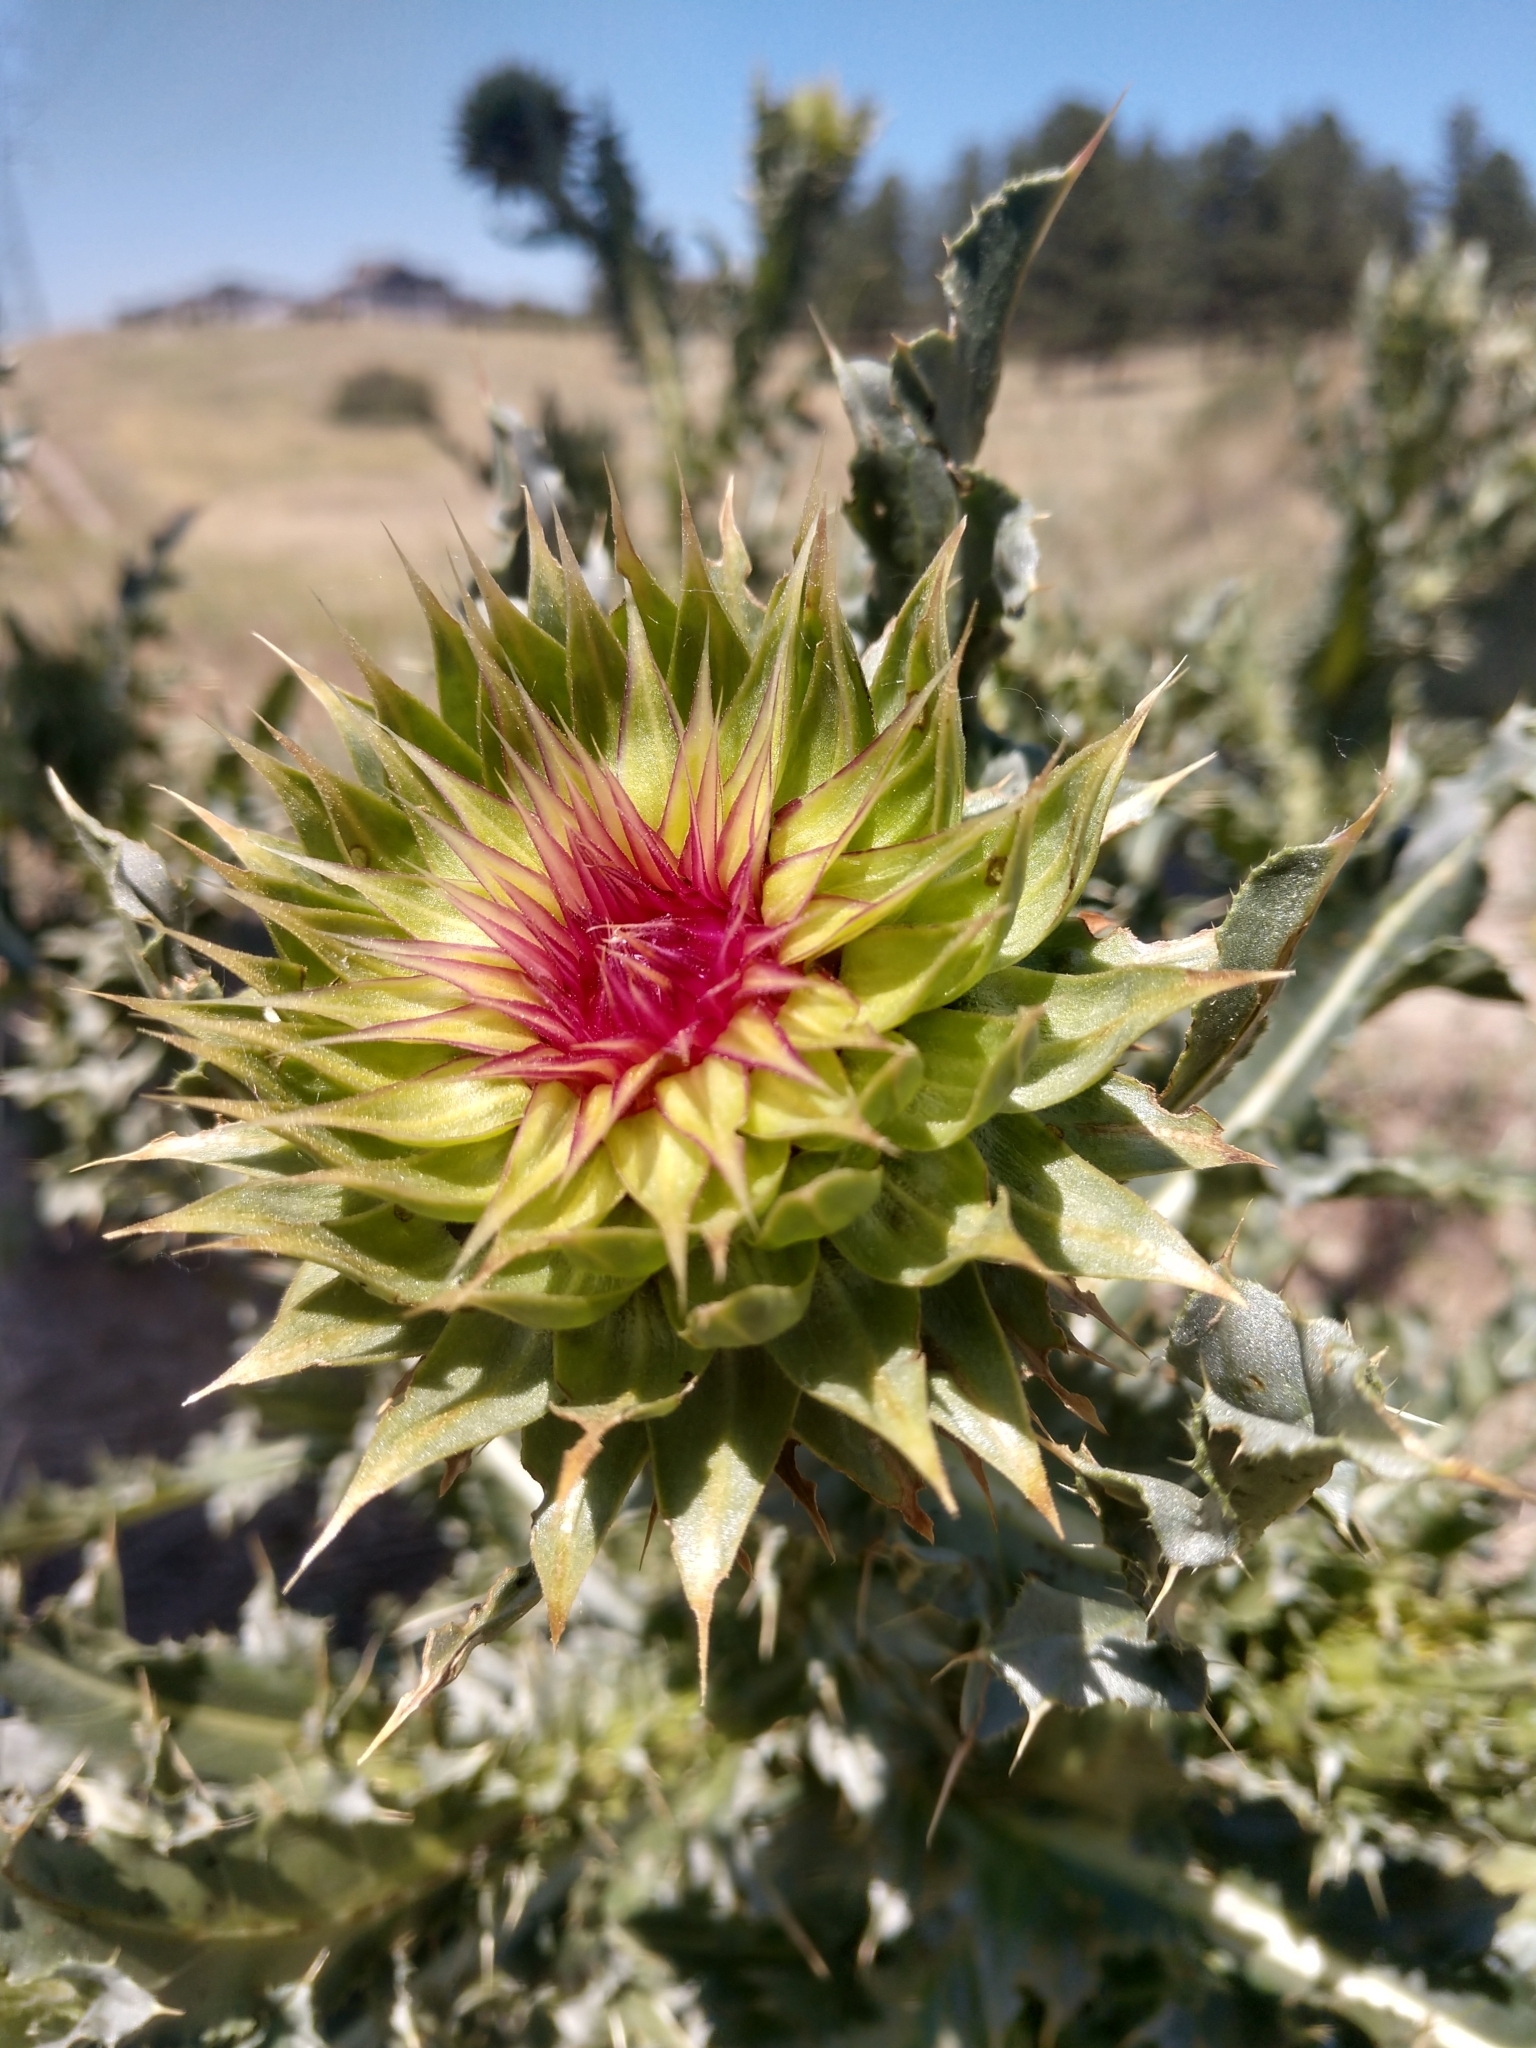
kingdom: Plantae
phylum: Tracheophyta
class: Magnoliopsida
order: Asterales
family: Asteraceae
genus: Carduus
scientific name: Carduus nutans
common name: Musk thistle
